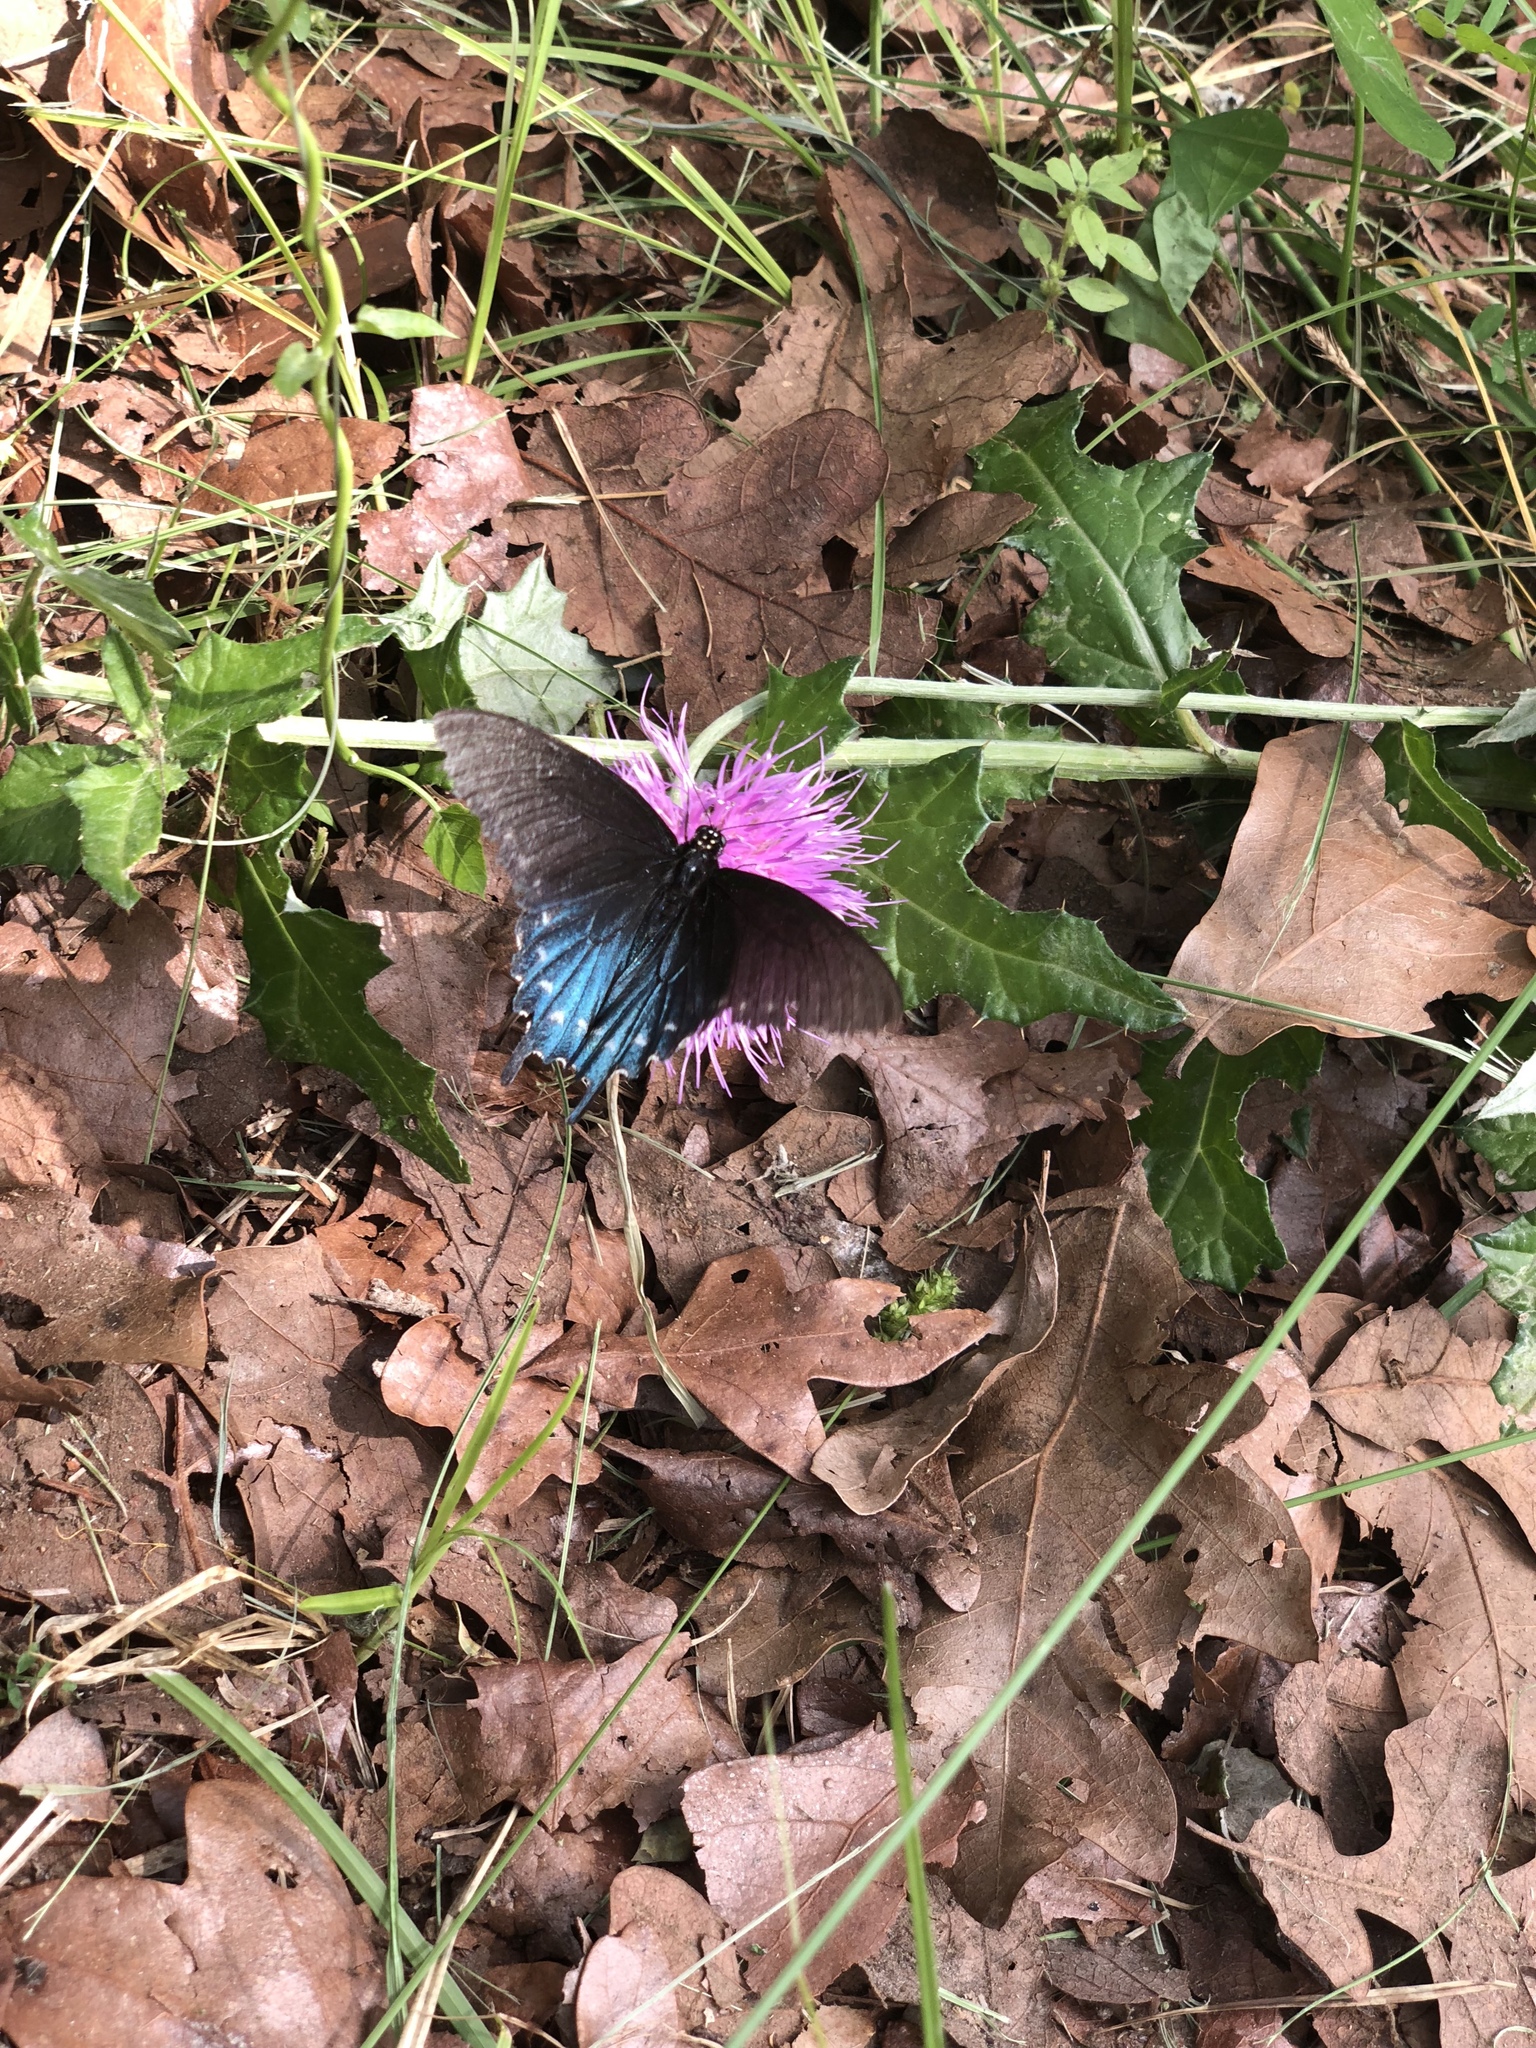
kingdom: Animalia
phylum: Arthropoda
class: Insecta
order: Lepidoptera
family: Papilionidae
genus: Battus
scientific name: Battus philenor
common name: Pipevine swallowtail
